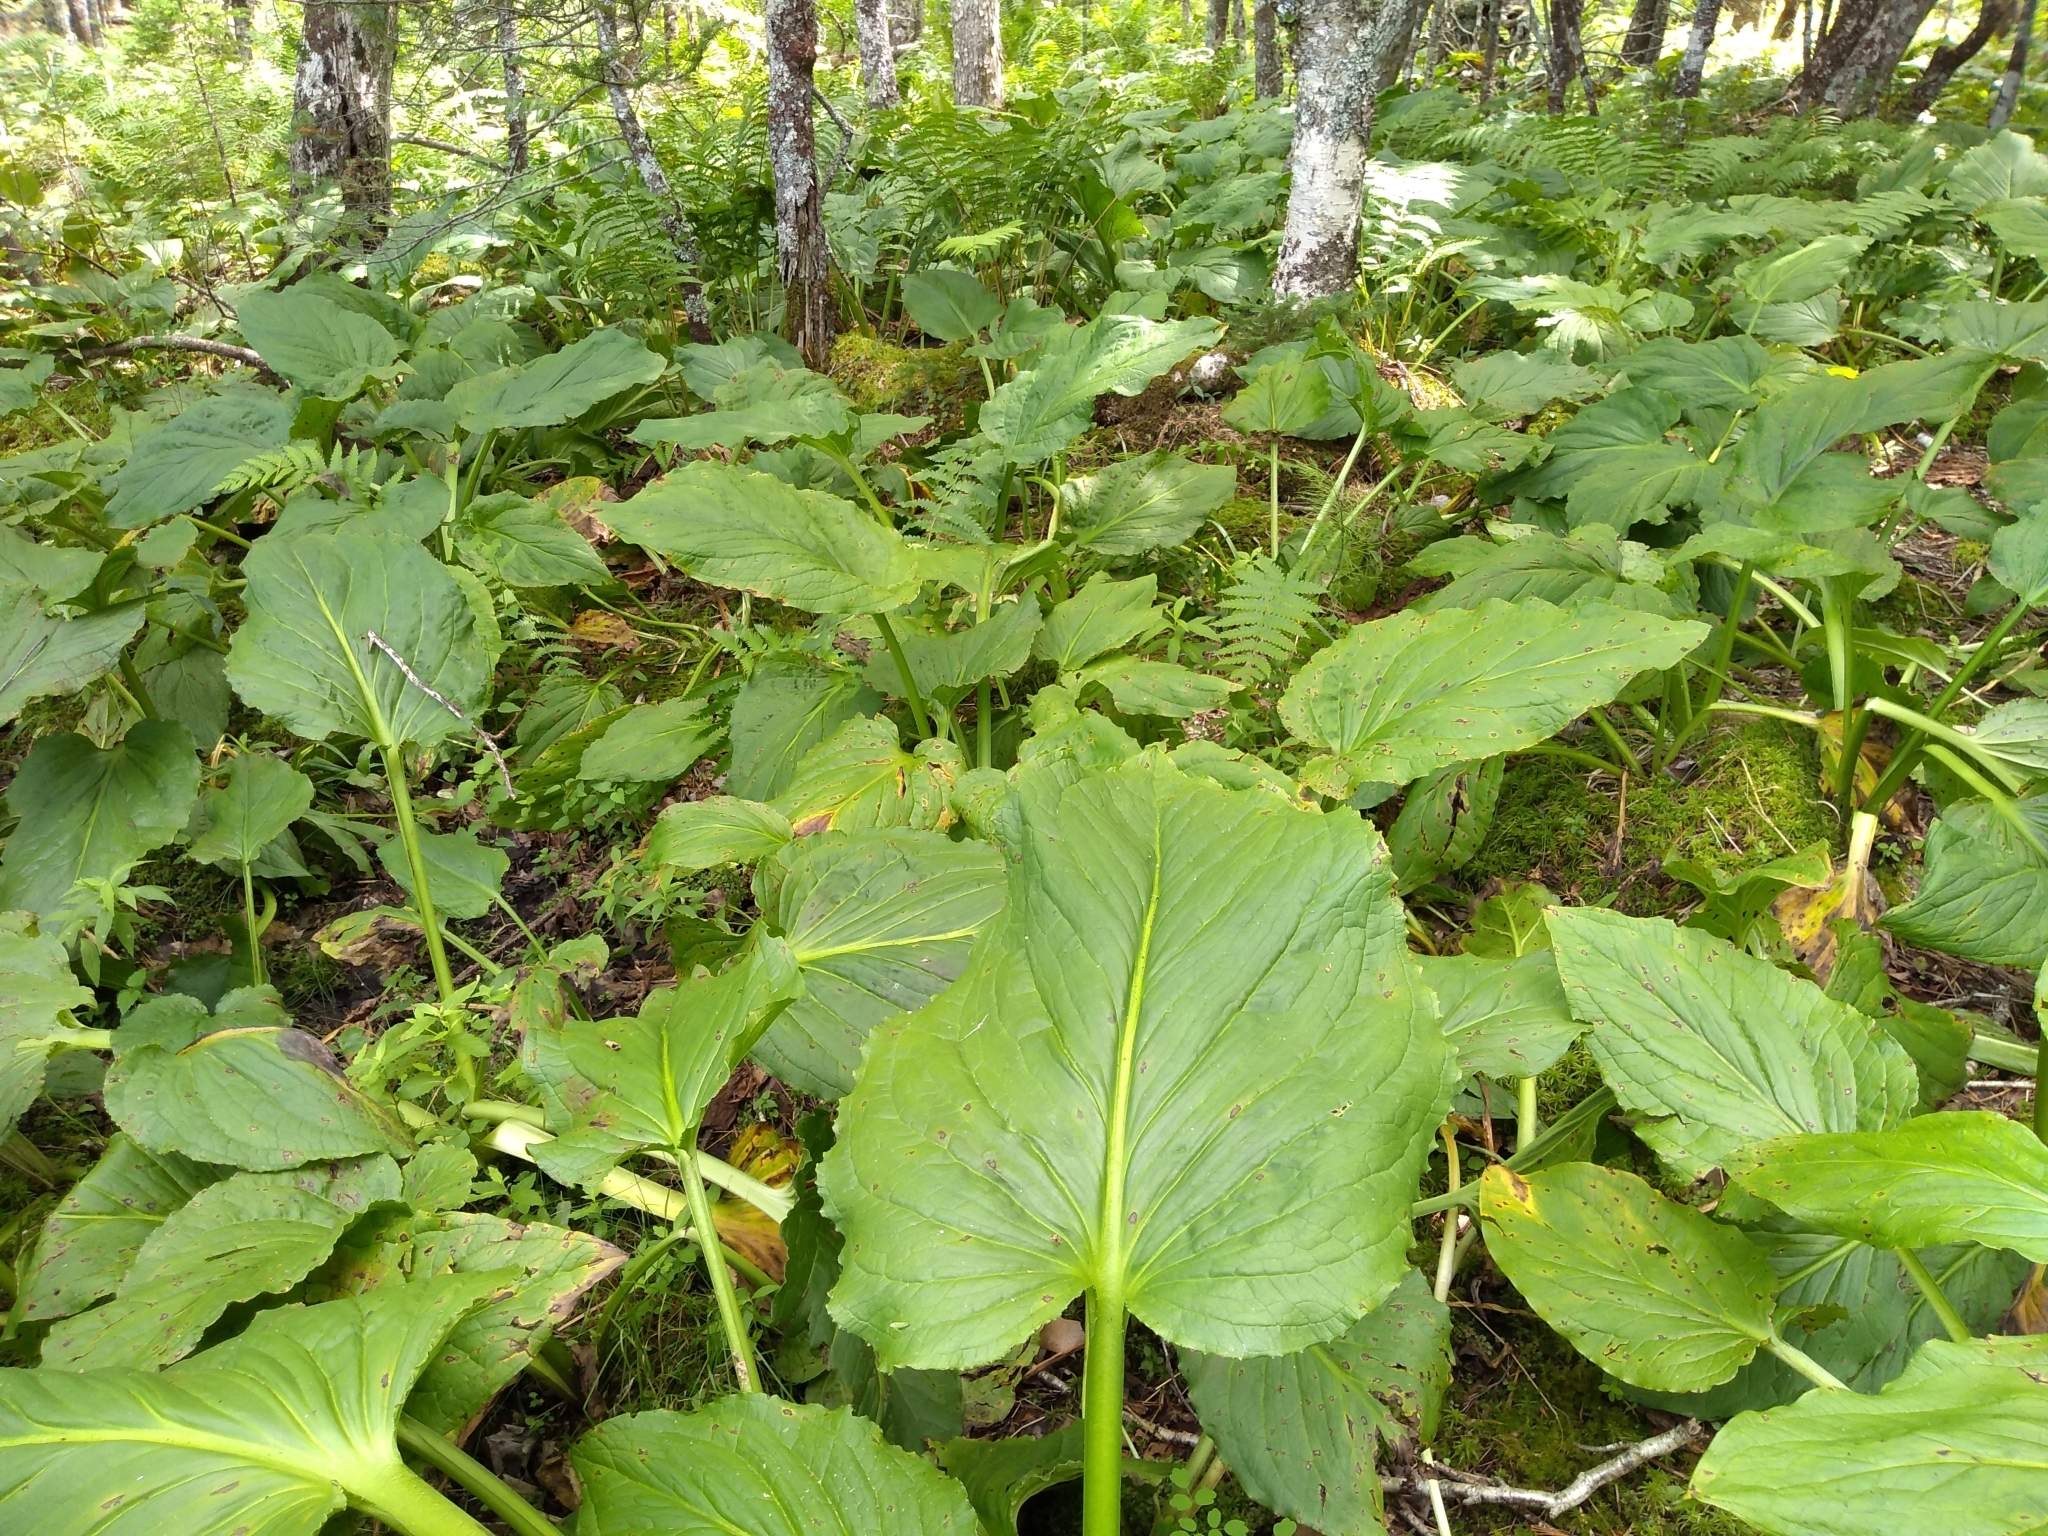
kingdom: Plantae
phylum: Tracheophyta
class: Liliopsida
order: Alismatales
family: Araceae
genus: Symplocarpus
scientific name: Symplocarpus foetidus
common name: Eastern skunk cabbage
